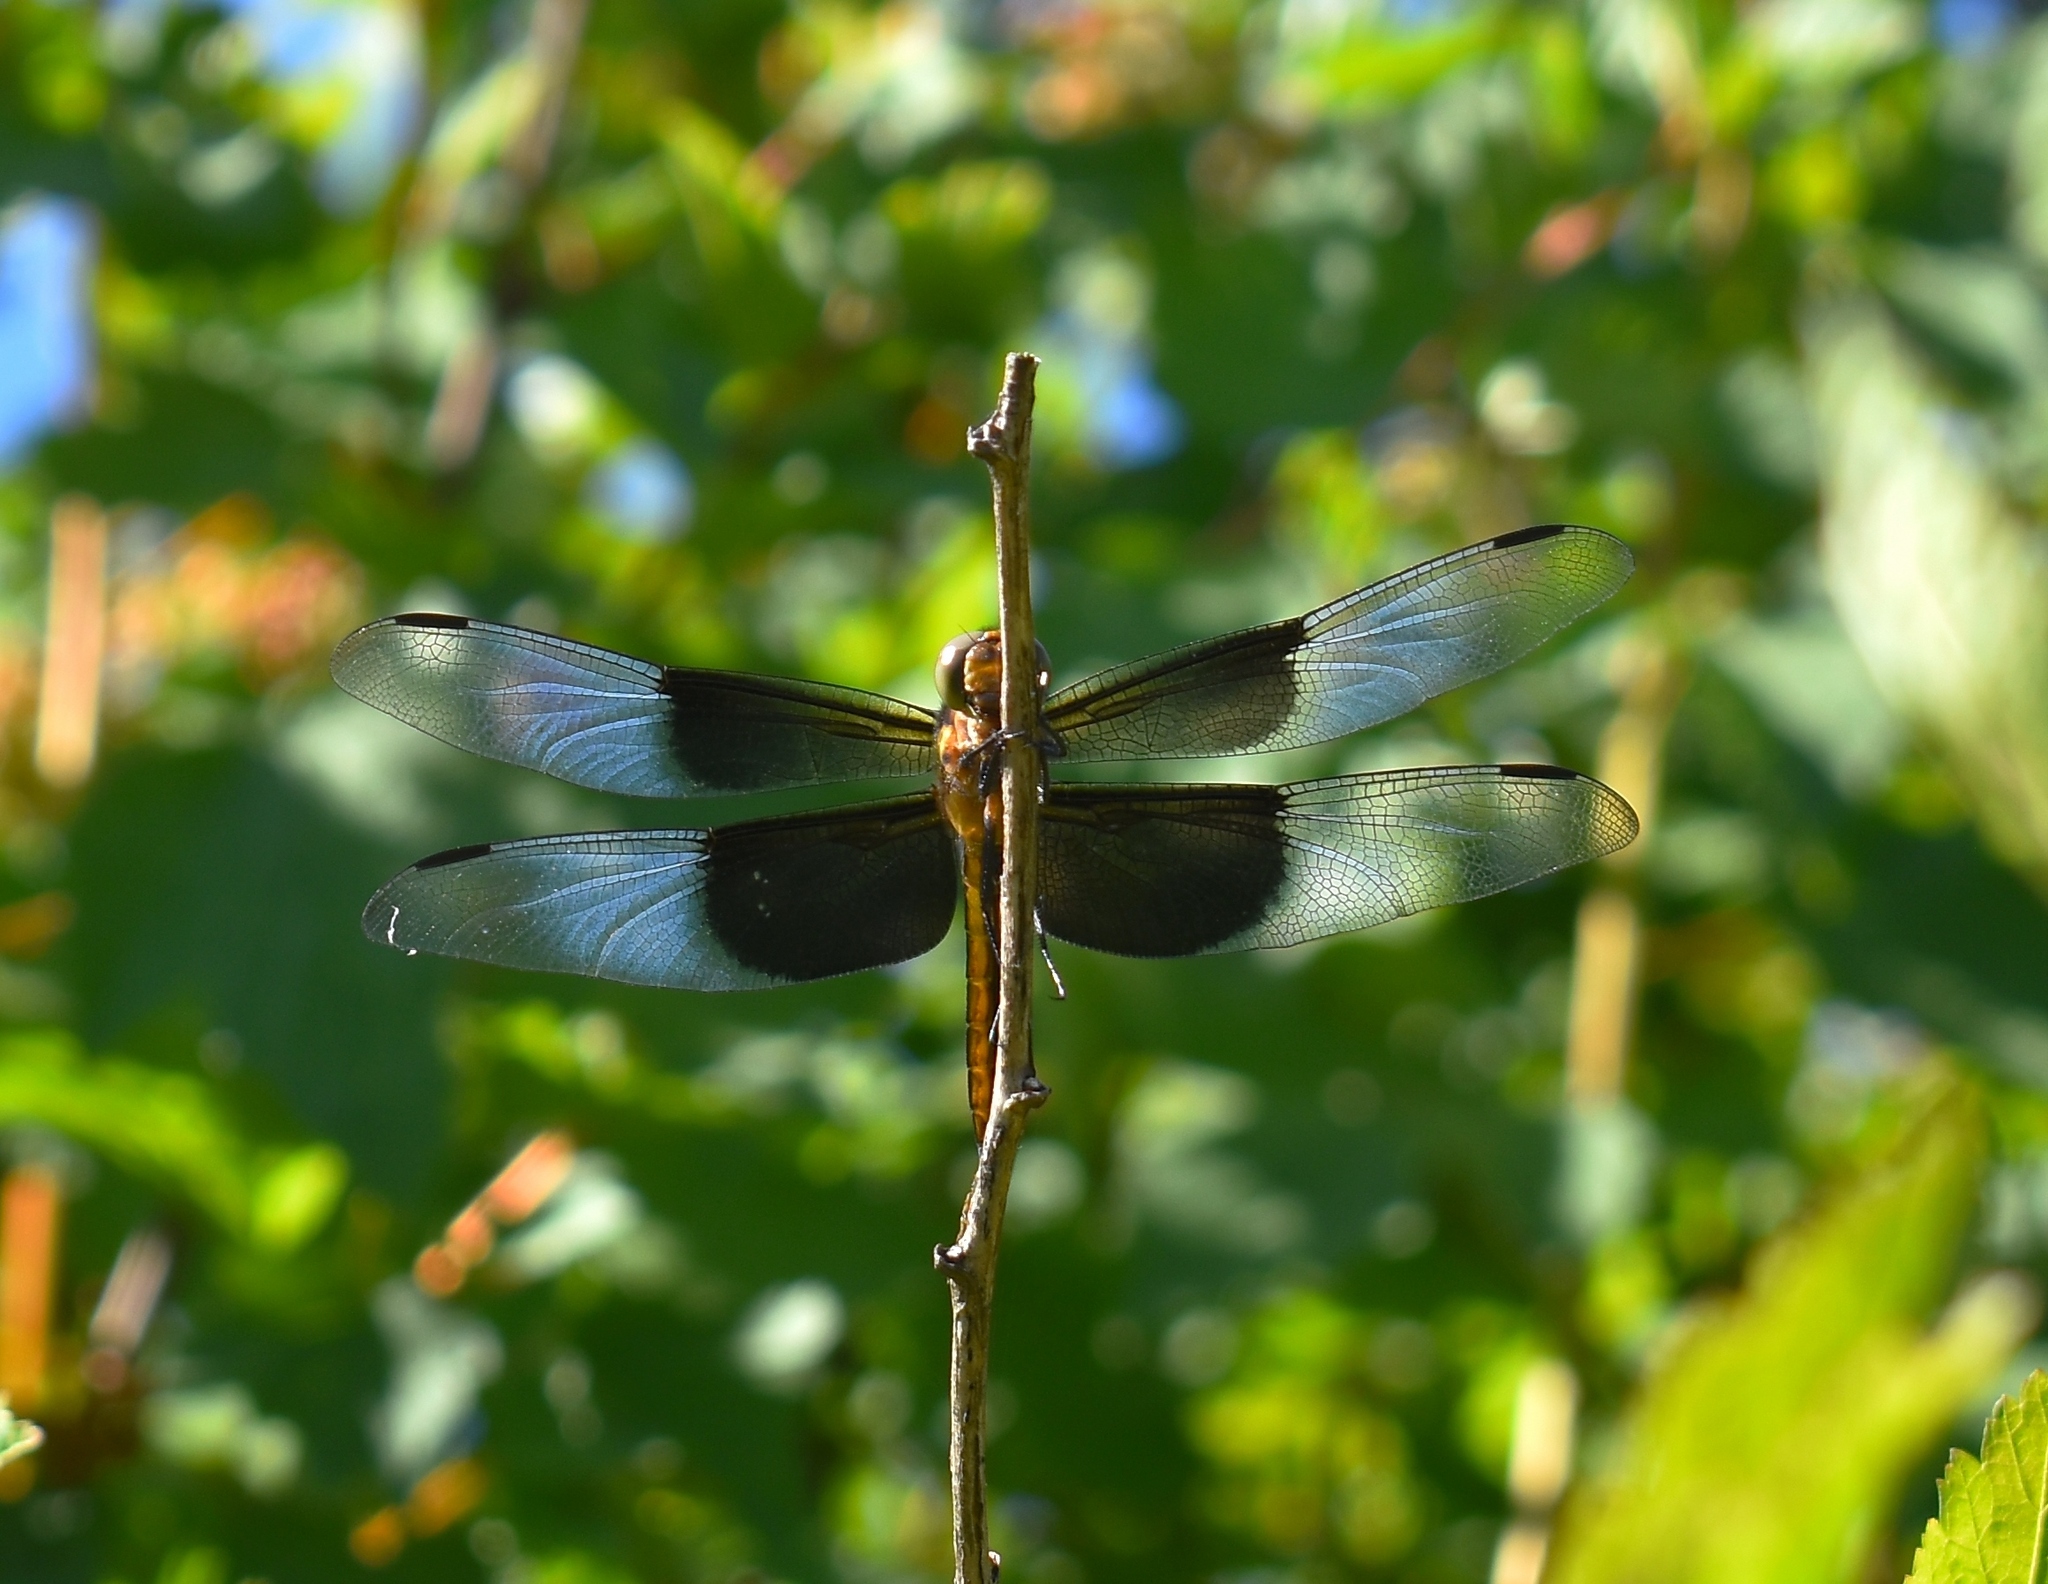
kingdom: Animalia
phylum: Arthropoda
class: Insecta
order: Odonata
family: Libellulidae
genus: Libellula
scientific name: Libellula luctuosa
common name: Widow skimmer
